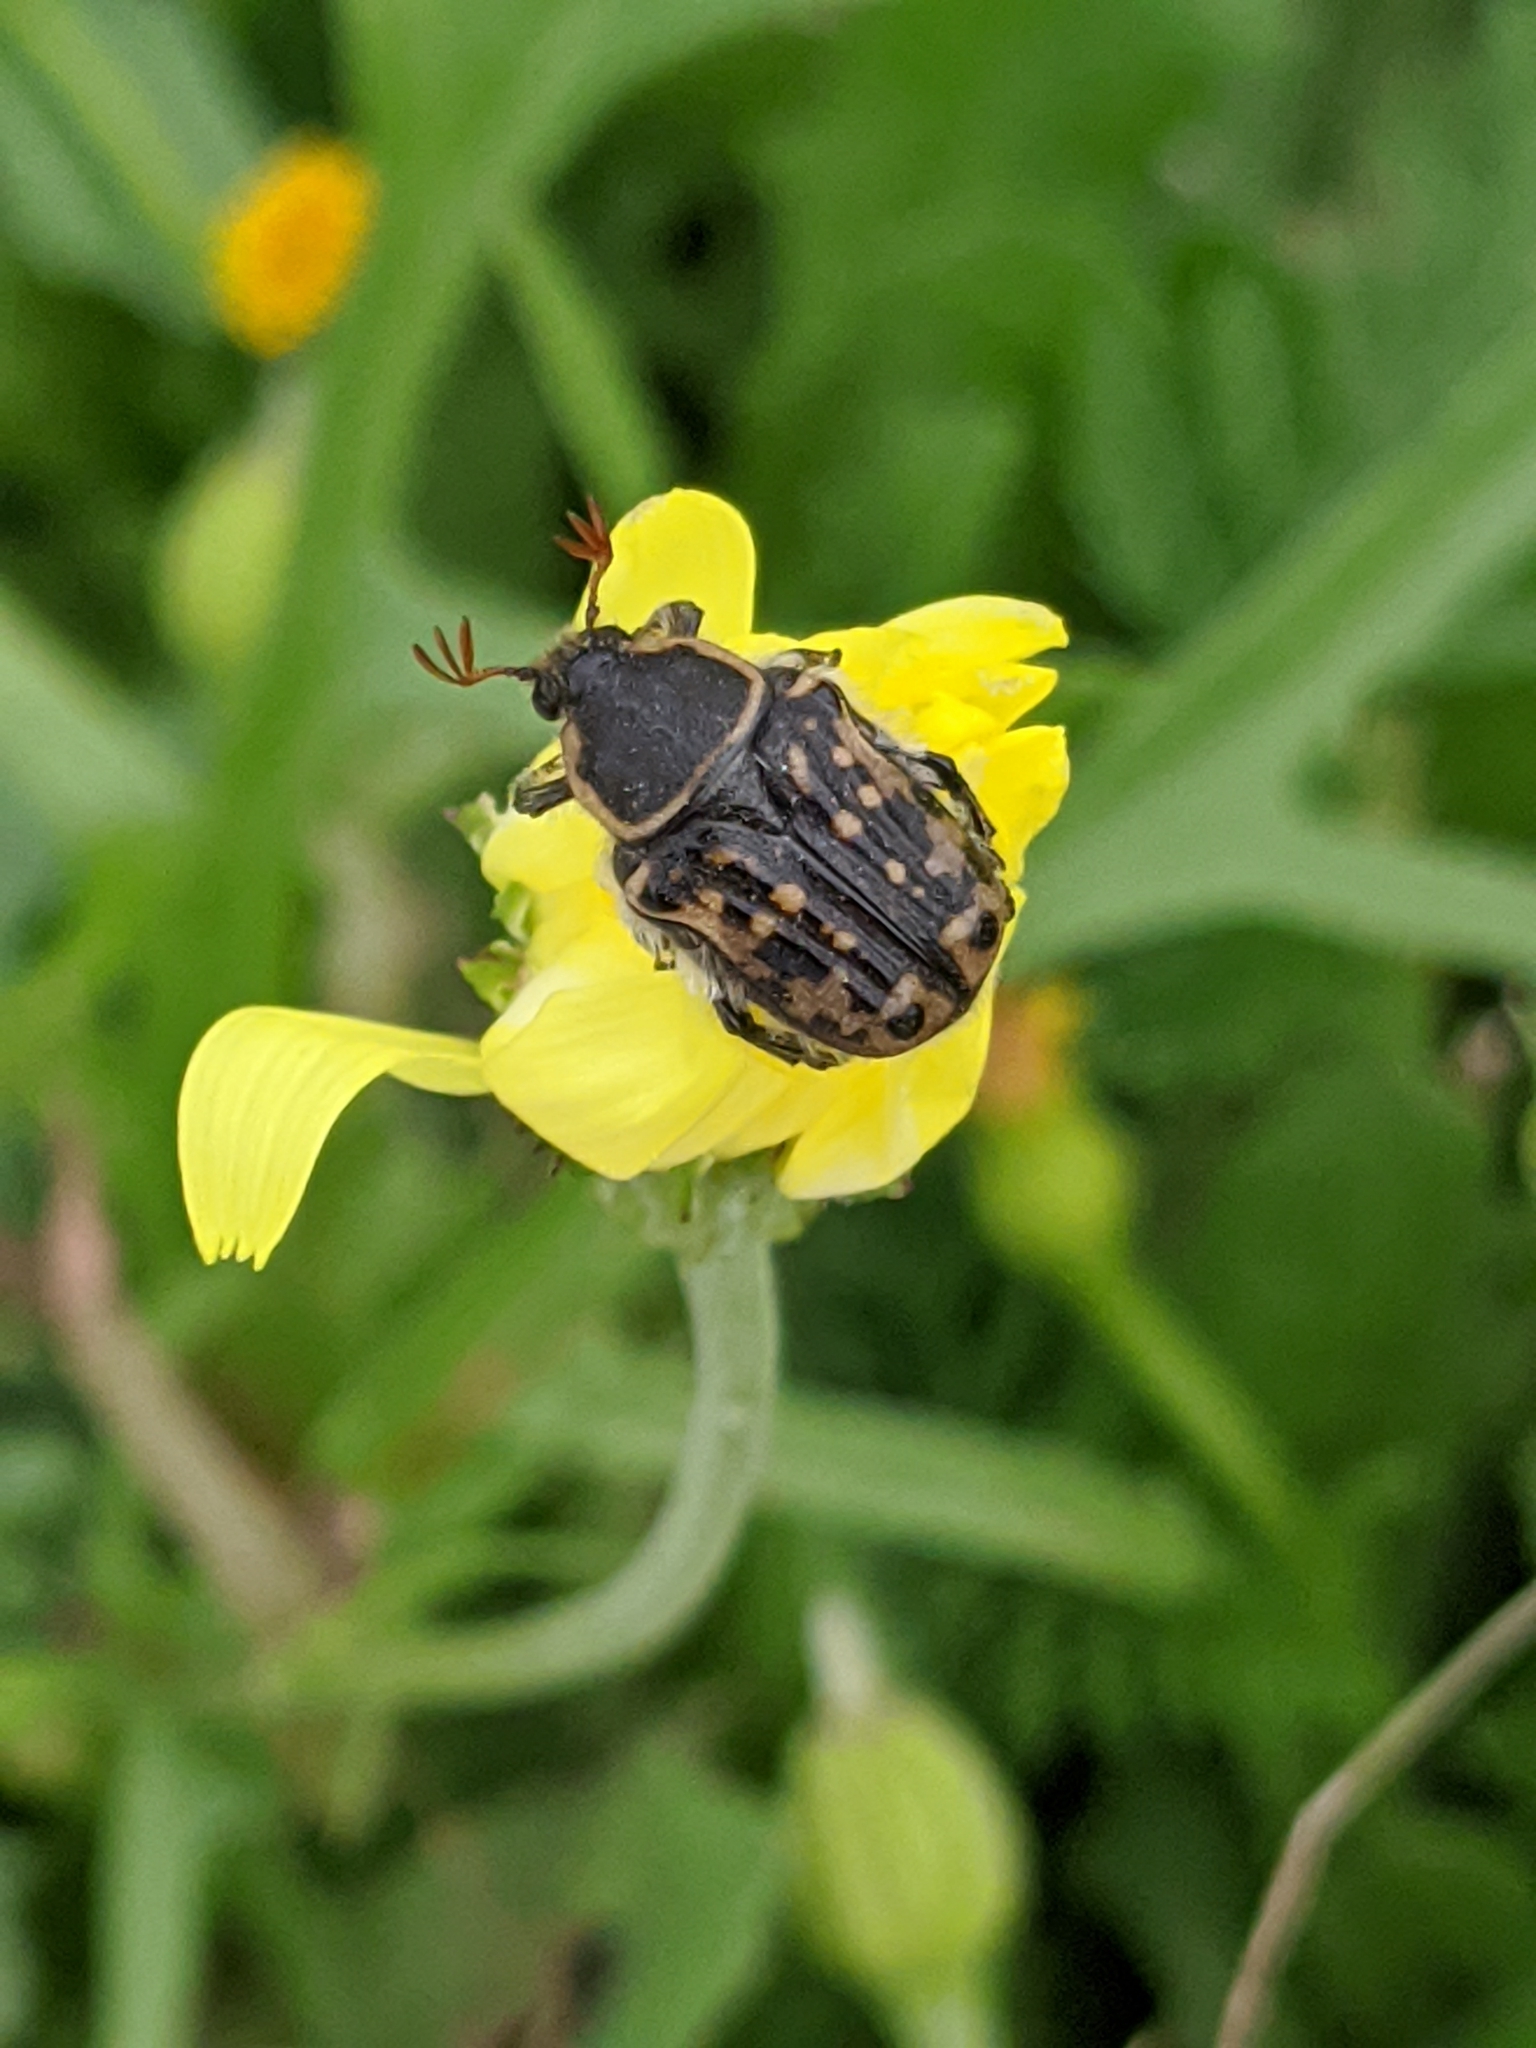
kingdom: Animalia
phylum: Arthropoda
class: Insecta
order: Coleoptera
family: Scarabaeidae
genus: Euphoria
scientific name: Euphoria kernii
